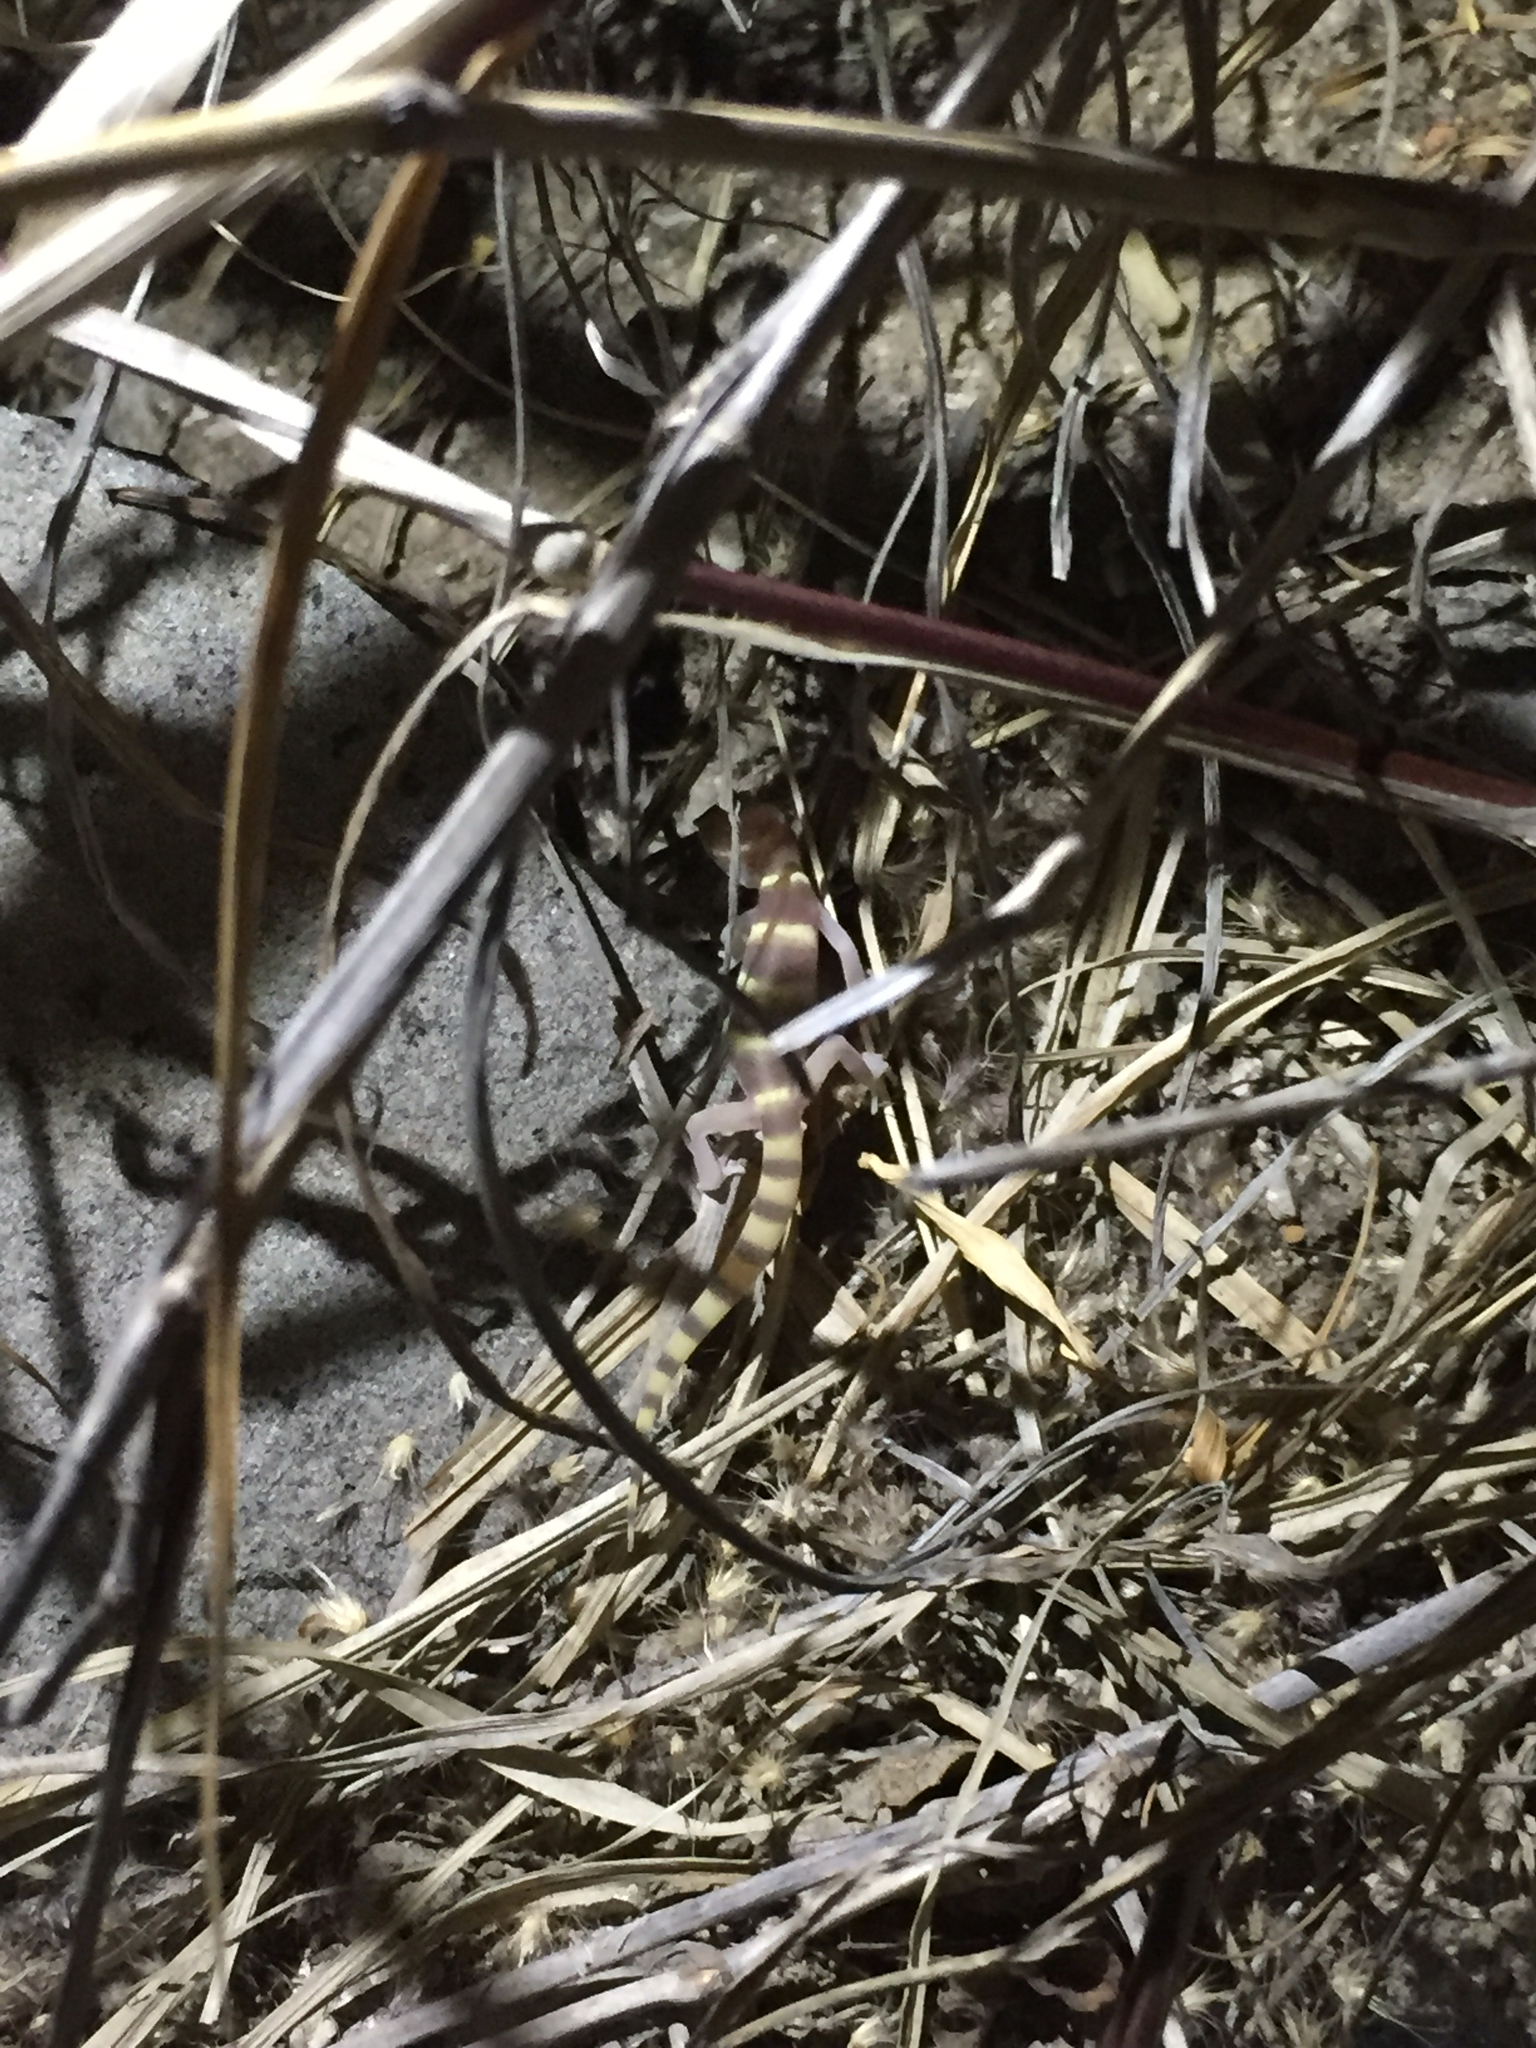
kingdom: Animalia
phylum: Chordata
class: Squamata
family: Eublepharidae
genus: Coleonyx
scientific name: Coleonyx variegatus
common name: Western banded gecko
